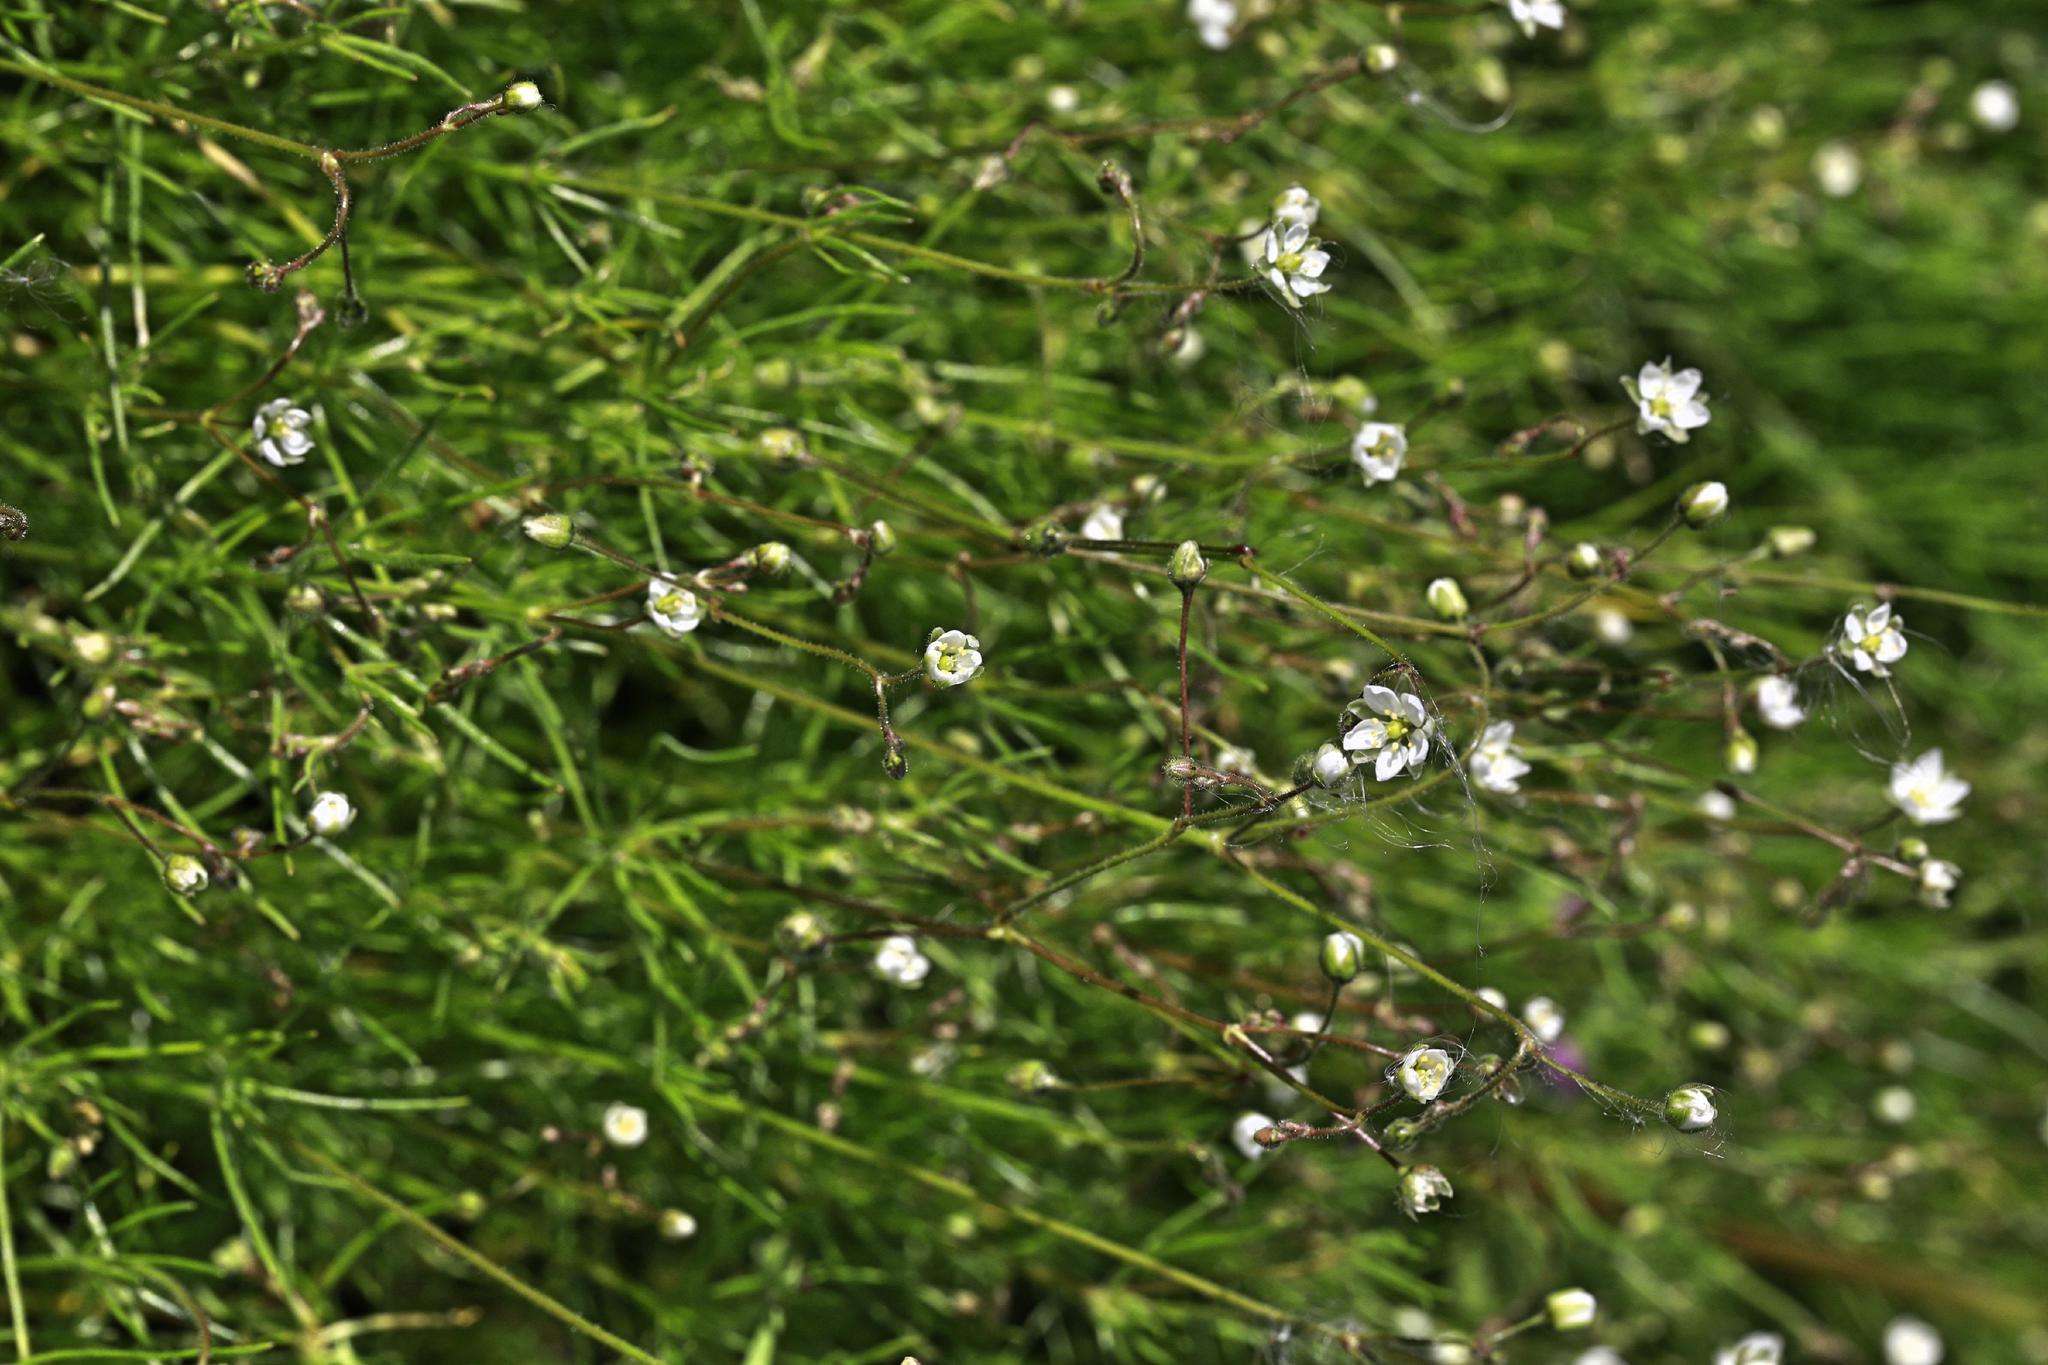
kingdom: Plantae
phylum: Tracheophyta
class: Magnoliopsida
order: Caryophyllales
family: Caryophyllaceae
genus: Spergula
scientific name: Spergula arvensis
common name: Corn spurrey
